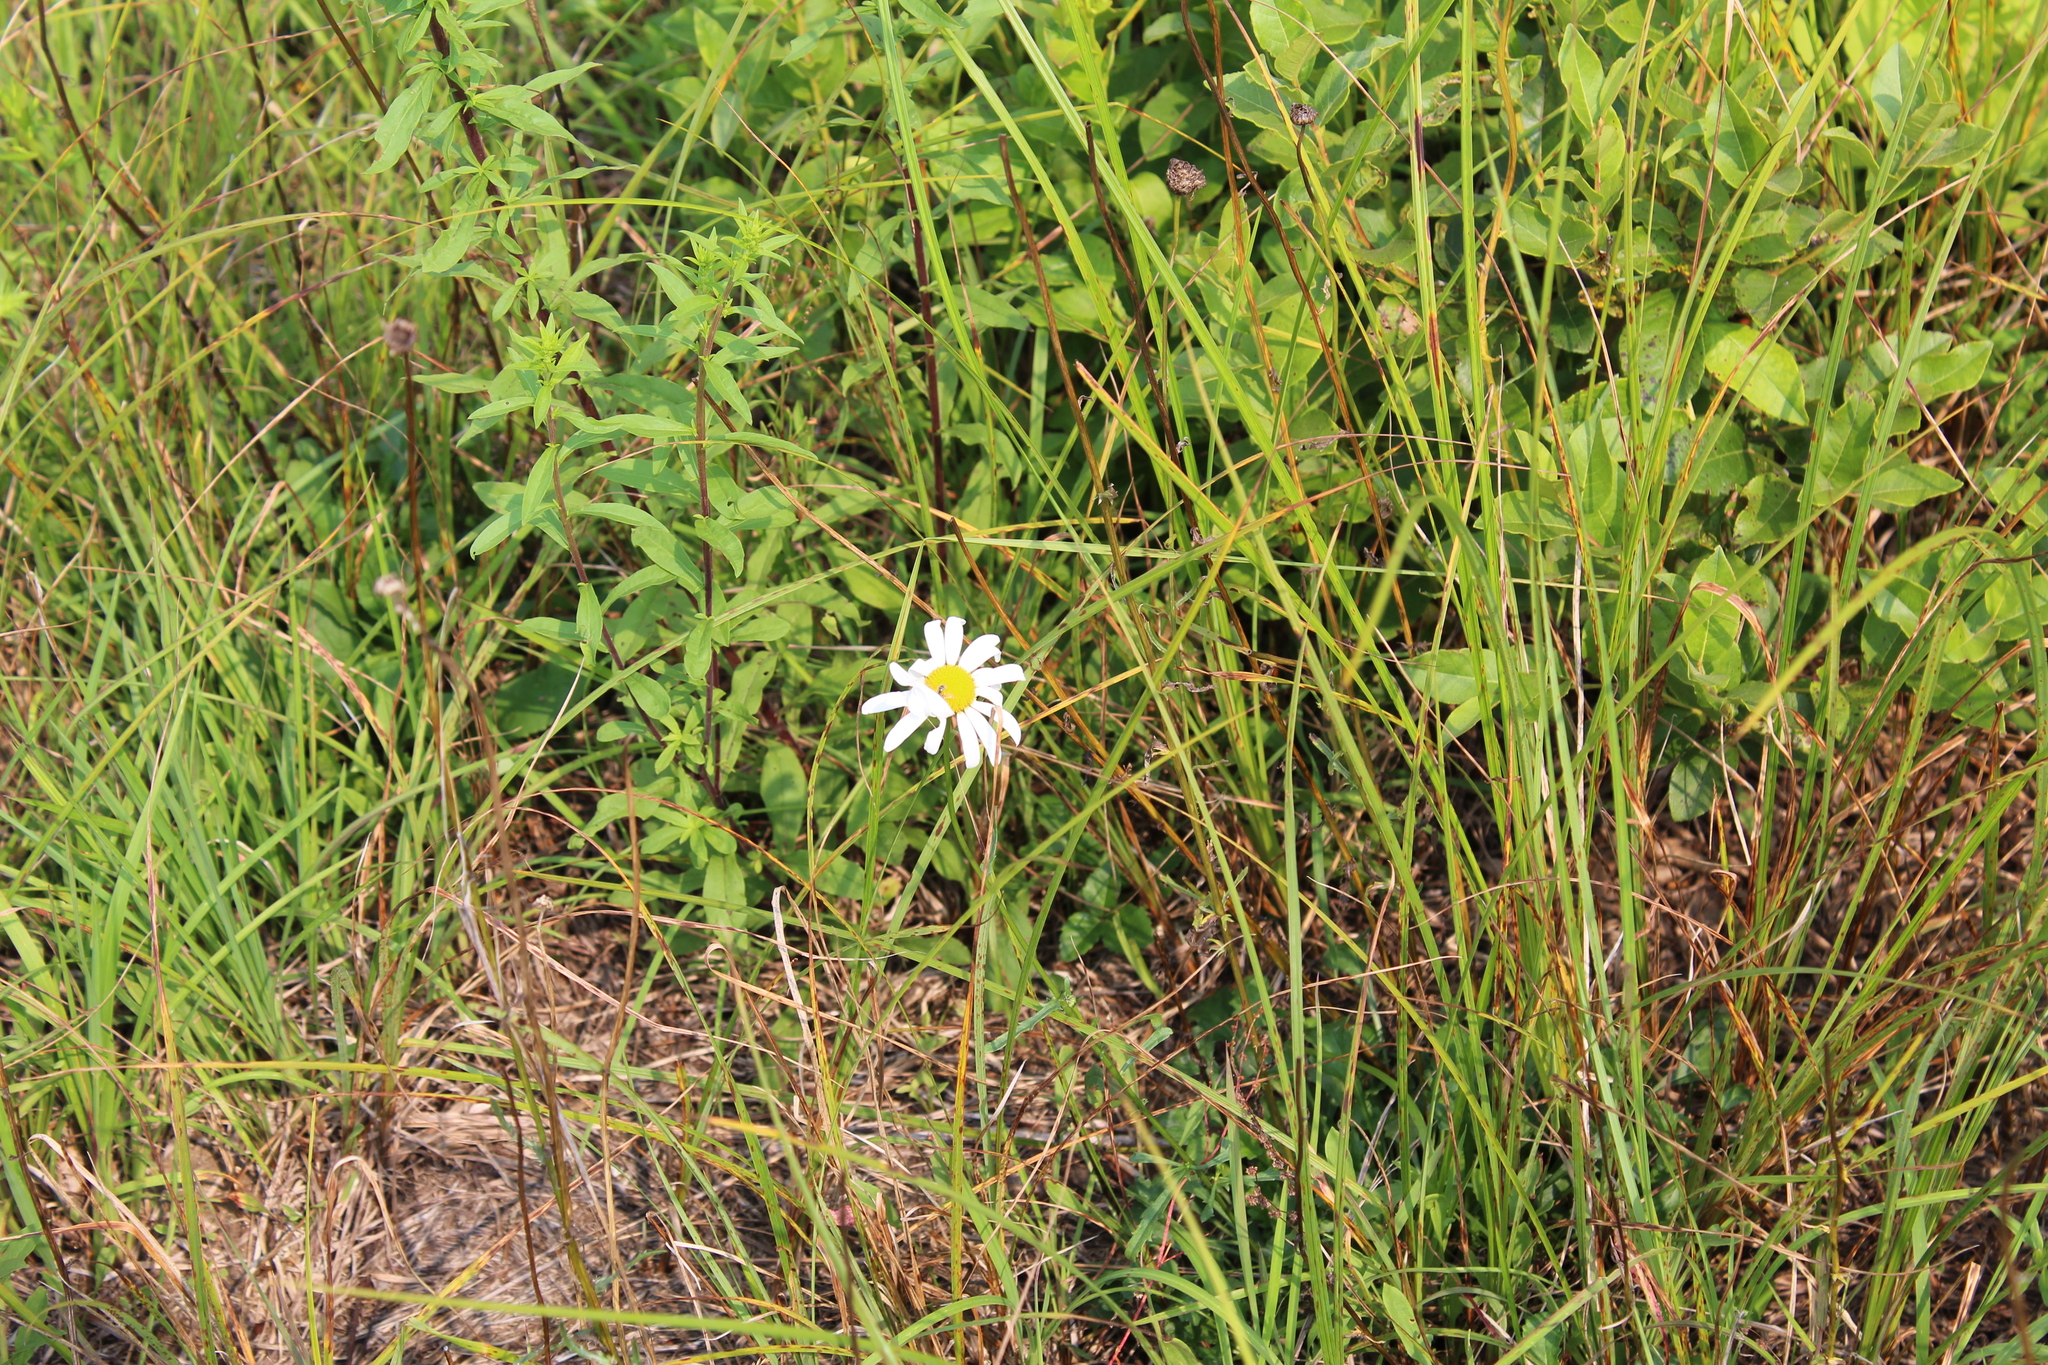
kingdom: Plantae
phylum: Tracheophyta
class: Magnoliopsida
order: Asterales
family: Asteraceae
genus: Leucanthemum
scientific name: Leucanthemum vulgare
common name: Oxeye daisy
